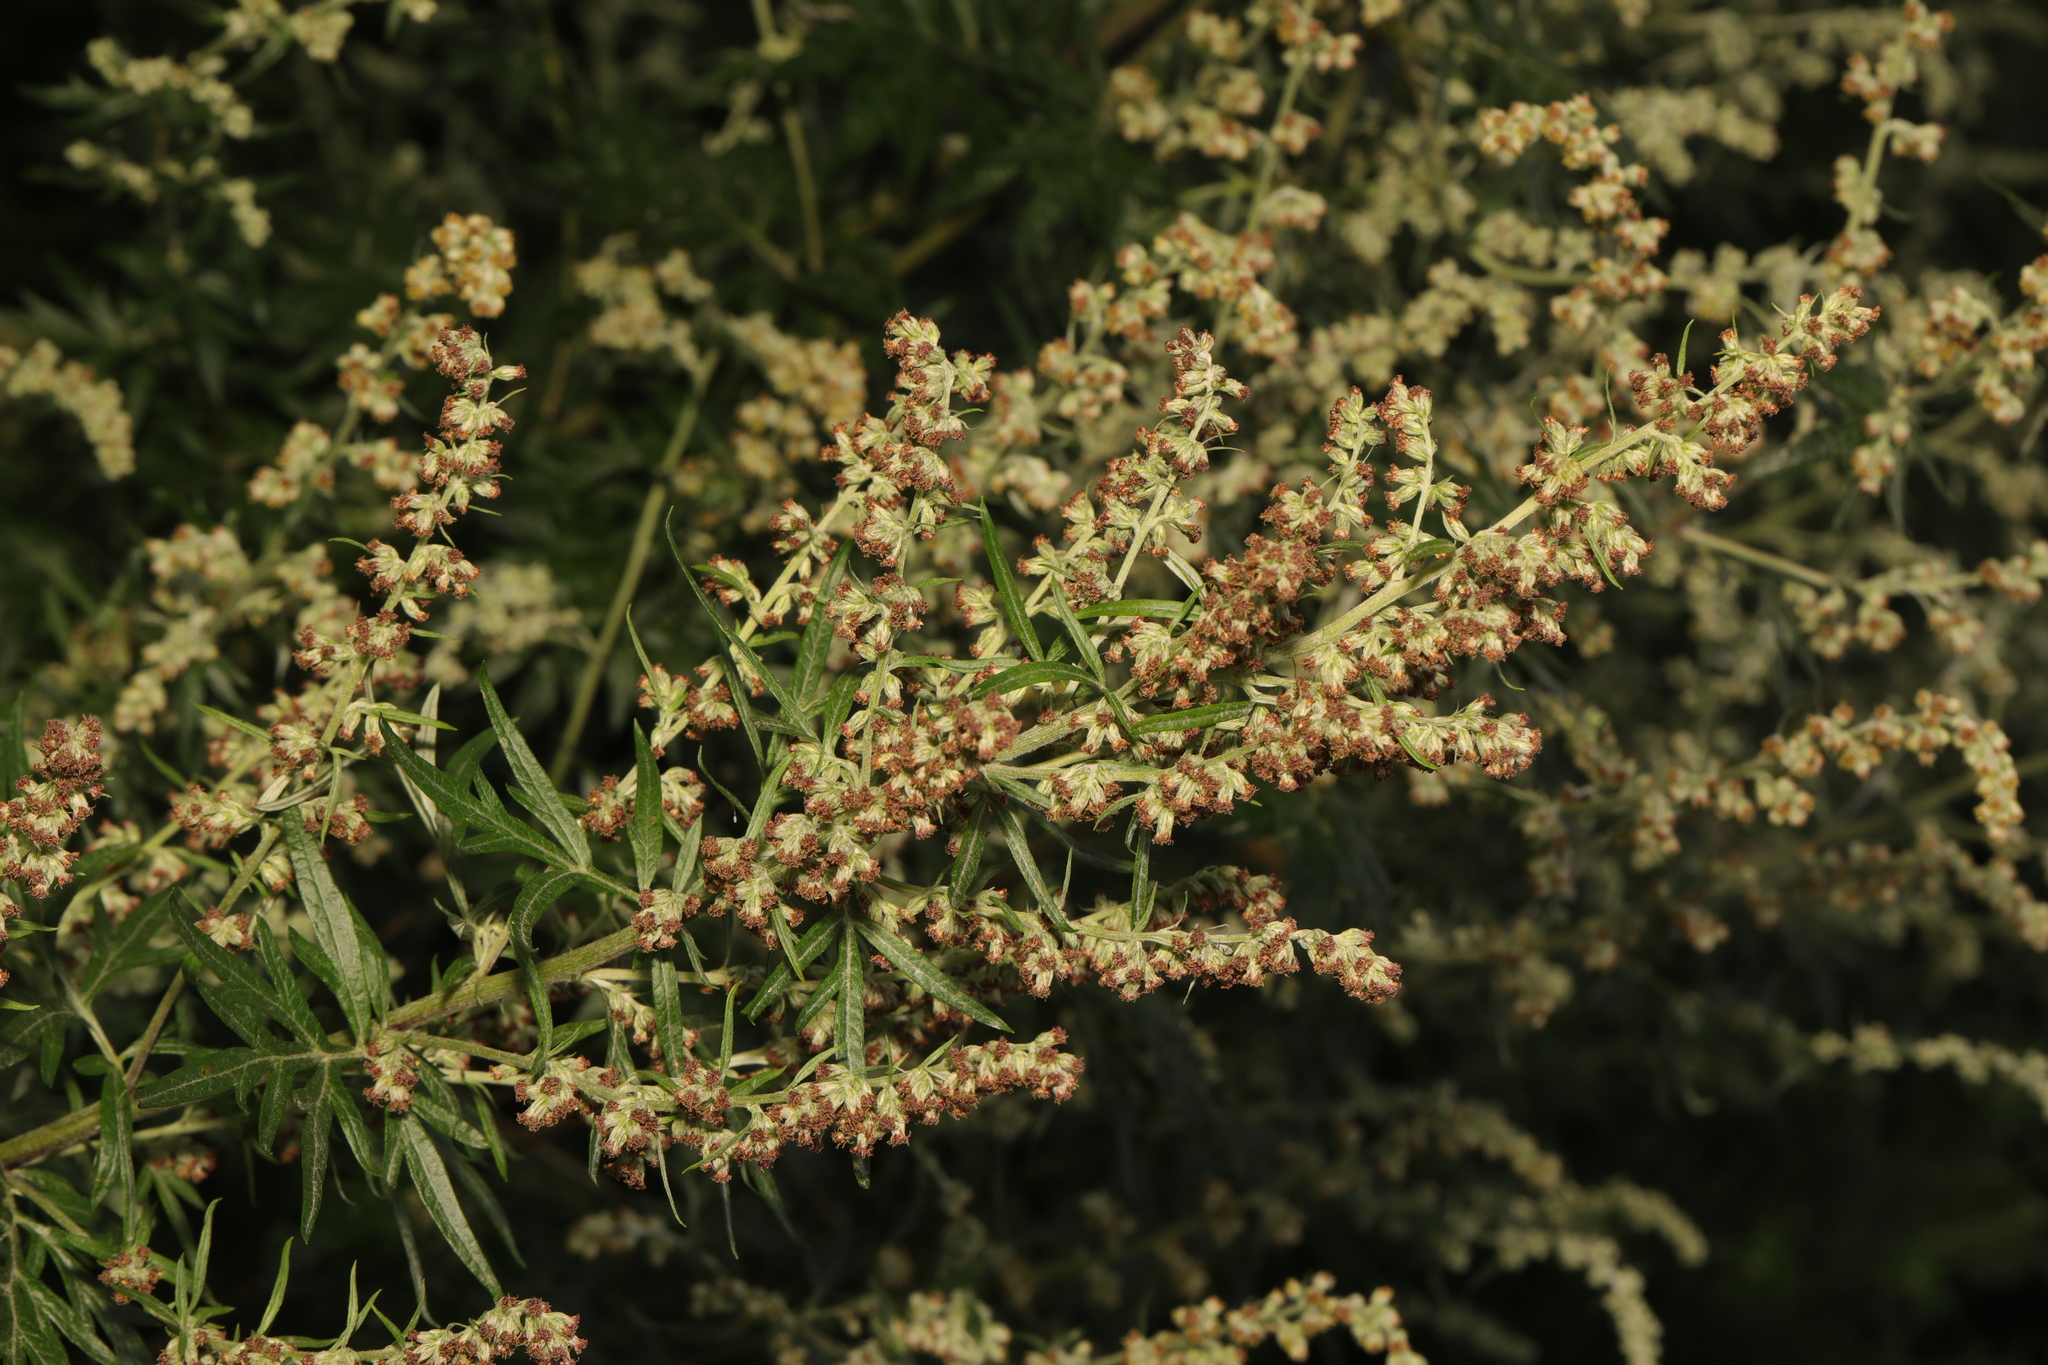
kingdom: Plantae
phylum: Tracheophyta
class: Magnoliopsida
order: Asterales
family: Asteraceae
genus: Artemisia
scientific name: Artemisia vulgaris
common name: Mugwort
